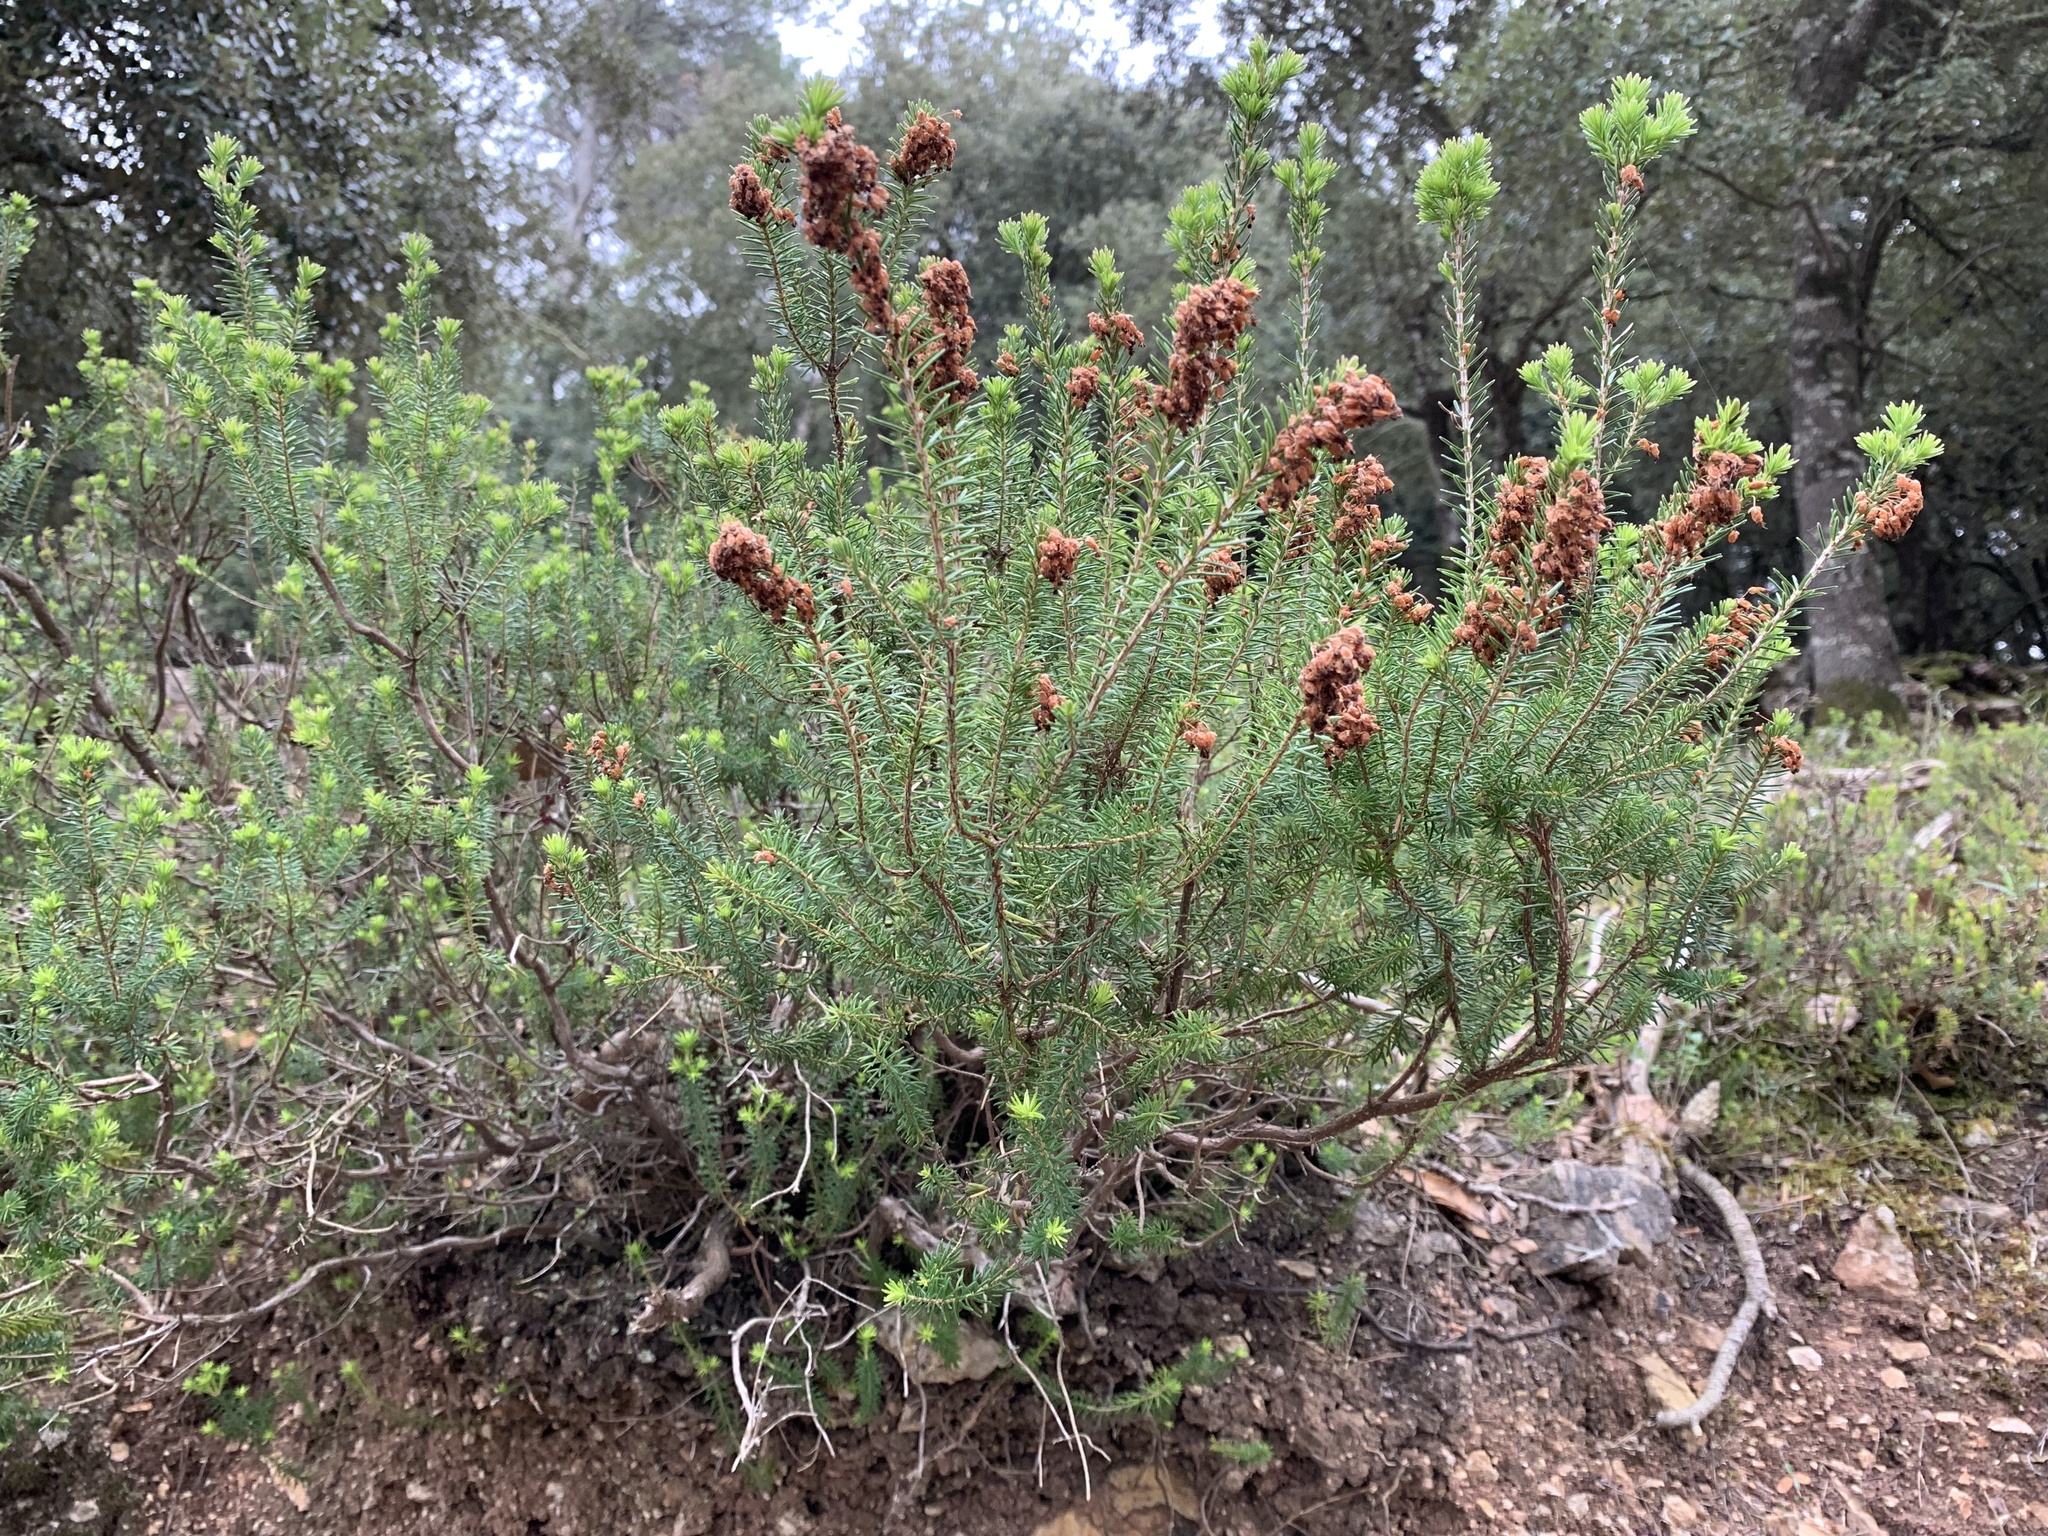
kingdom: Plantae
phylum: Tracheophyta
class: Magnoliopsida
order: Ericales
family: Ericaceae
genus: Erica
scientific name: Erica multiflora
